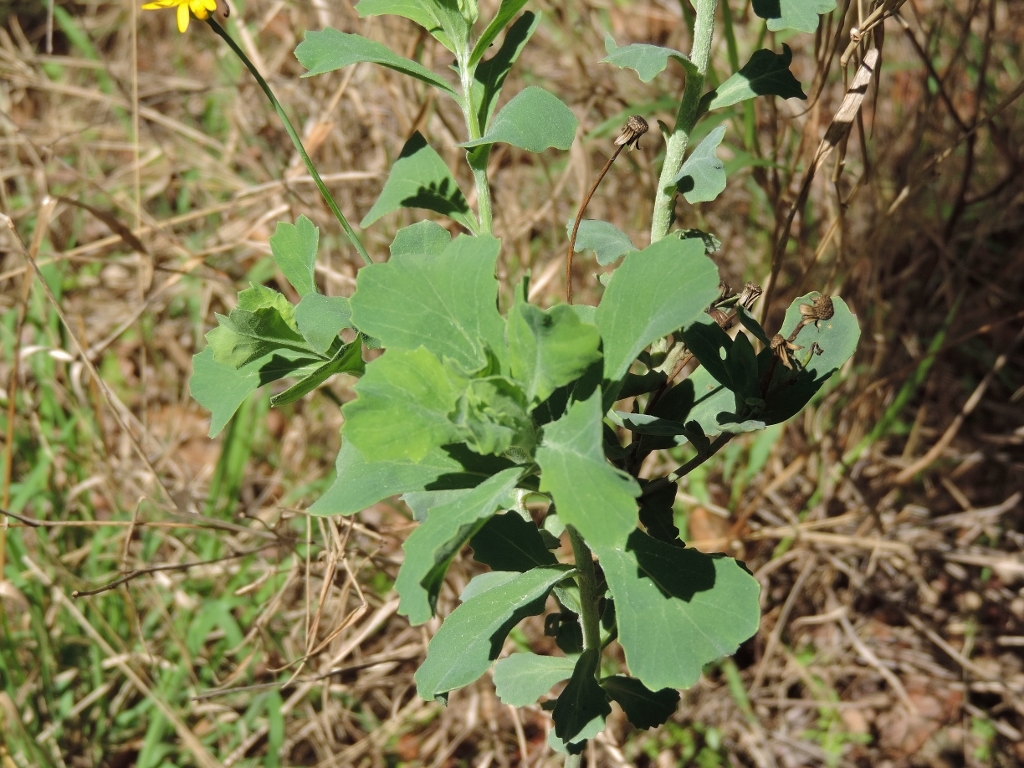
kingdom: Plantae
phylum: Tracheophyta
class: Magnoliopsida
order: Asterales
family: Asteraceae
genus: Emilia
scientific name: Emilia discifolia
